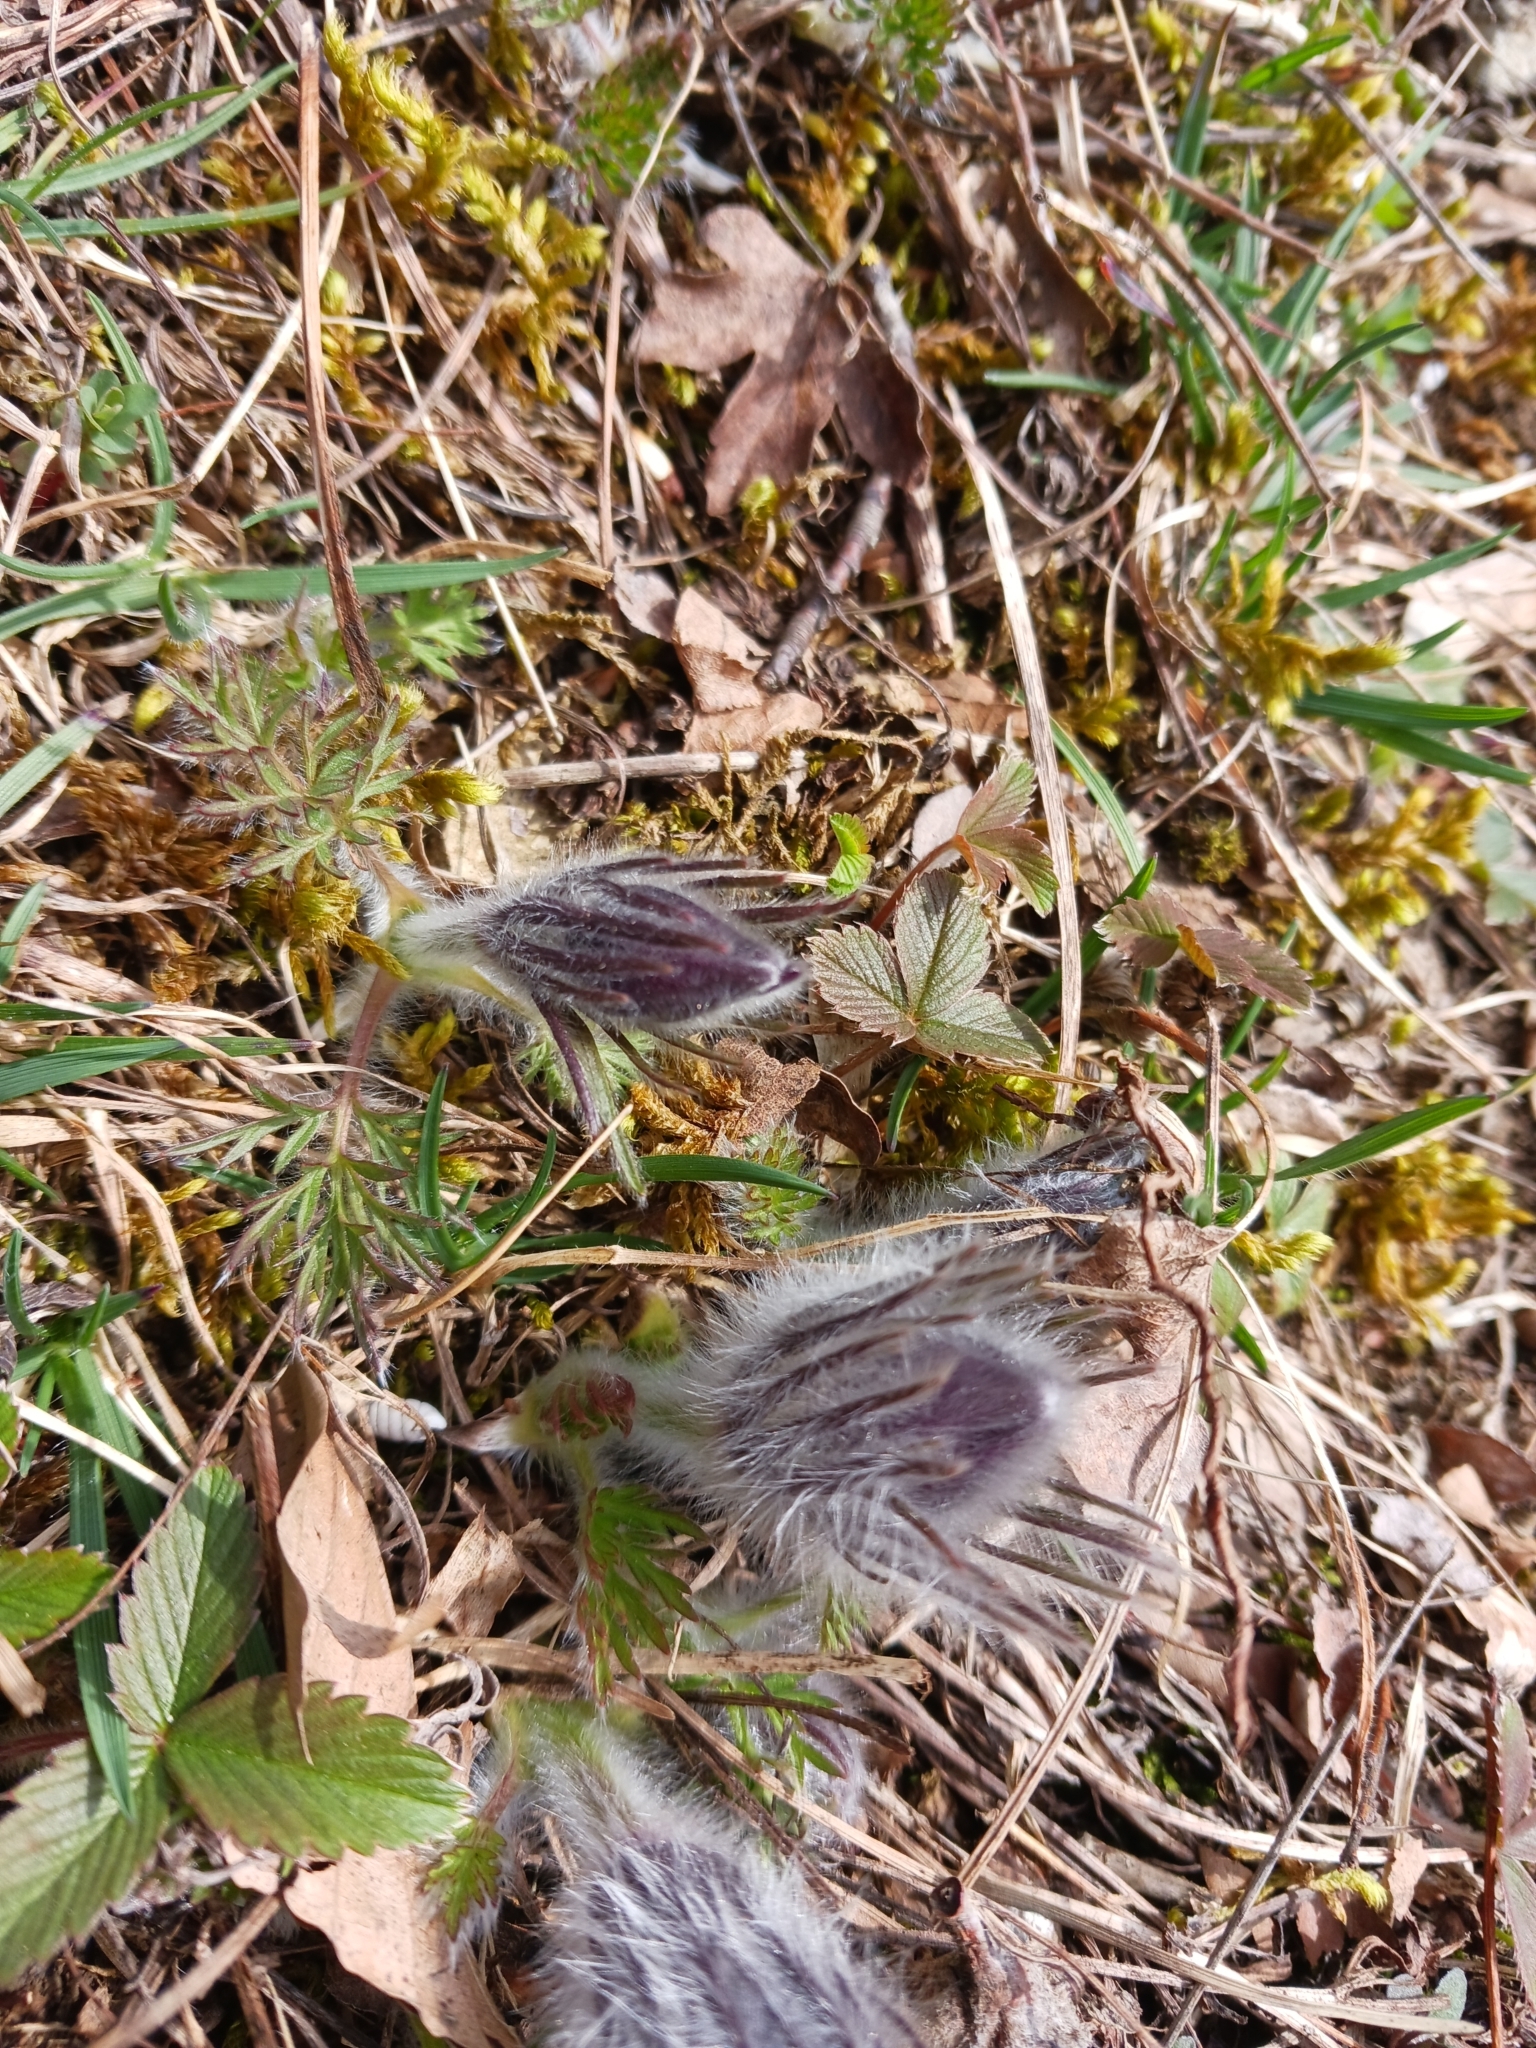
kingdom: Plantae
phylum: Tracheophyta
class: Magnoliopsida
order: Ranunculales
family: Ranunculaceae
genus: Pulsatilla
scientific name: Pulsatilla vulgaris
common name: Pasqueflower
